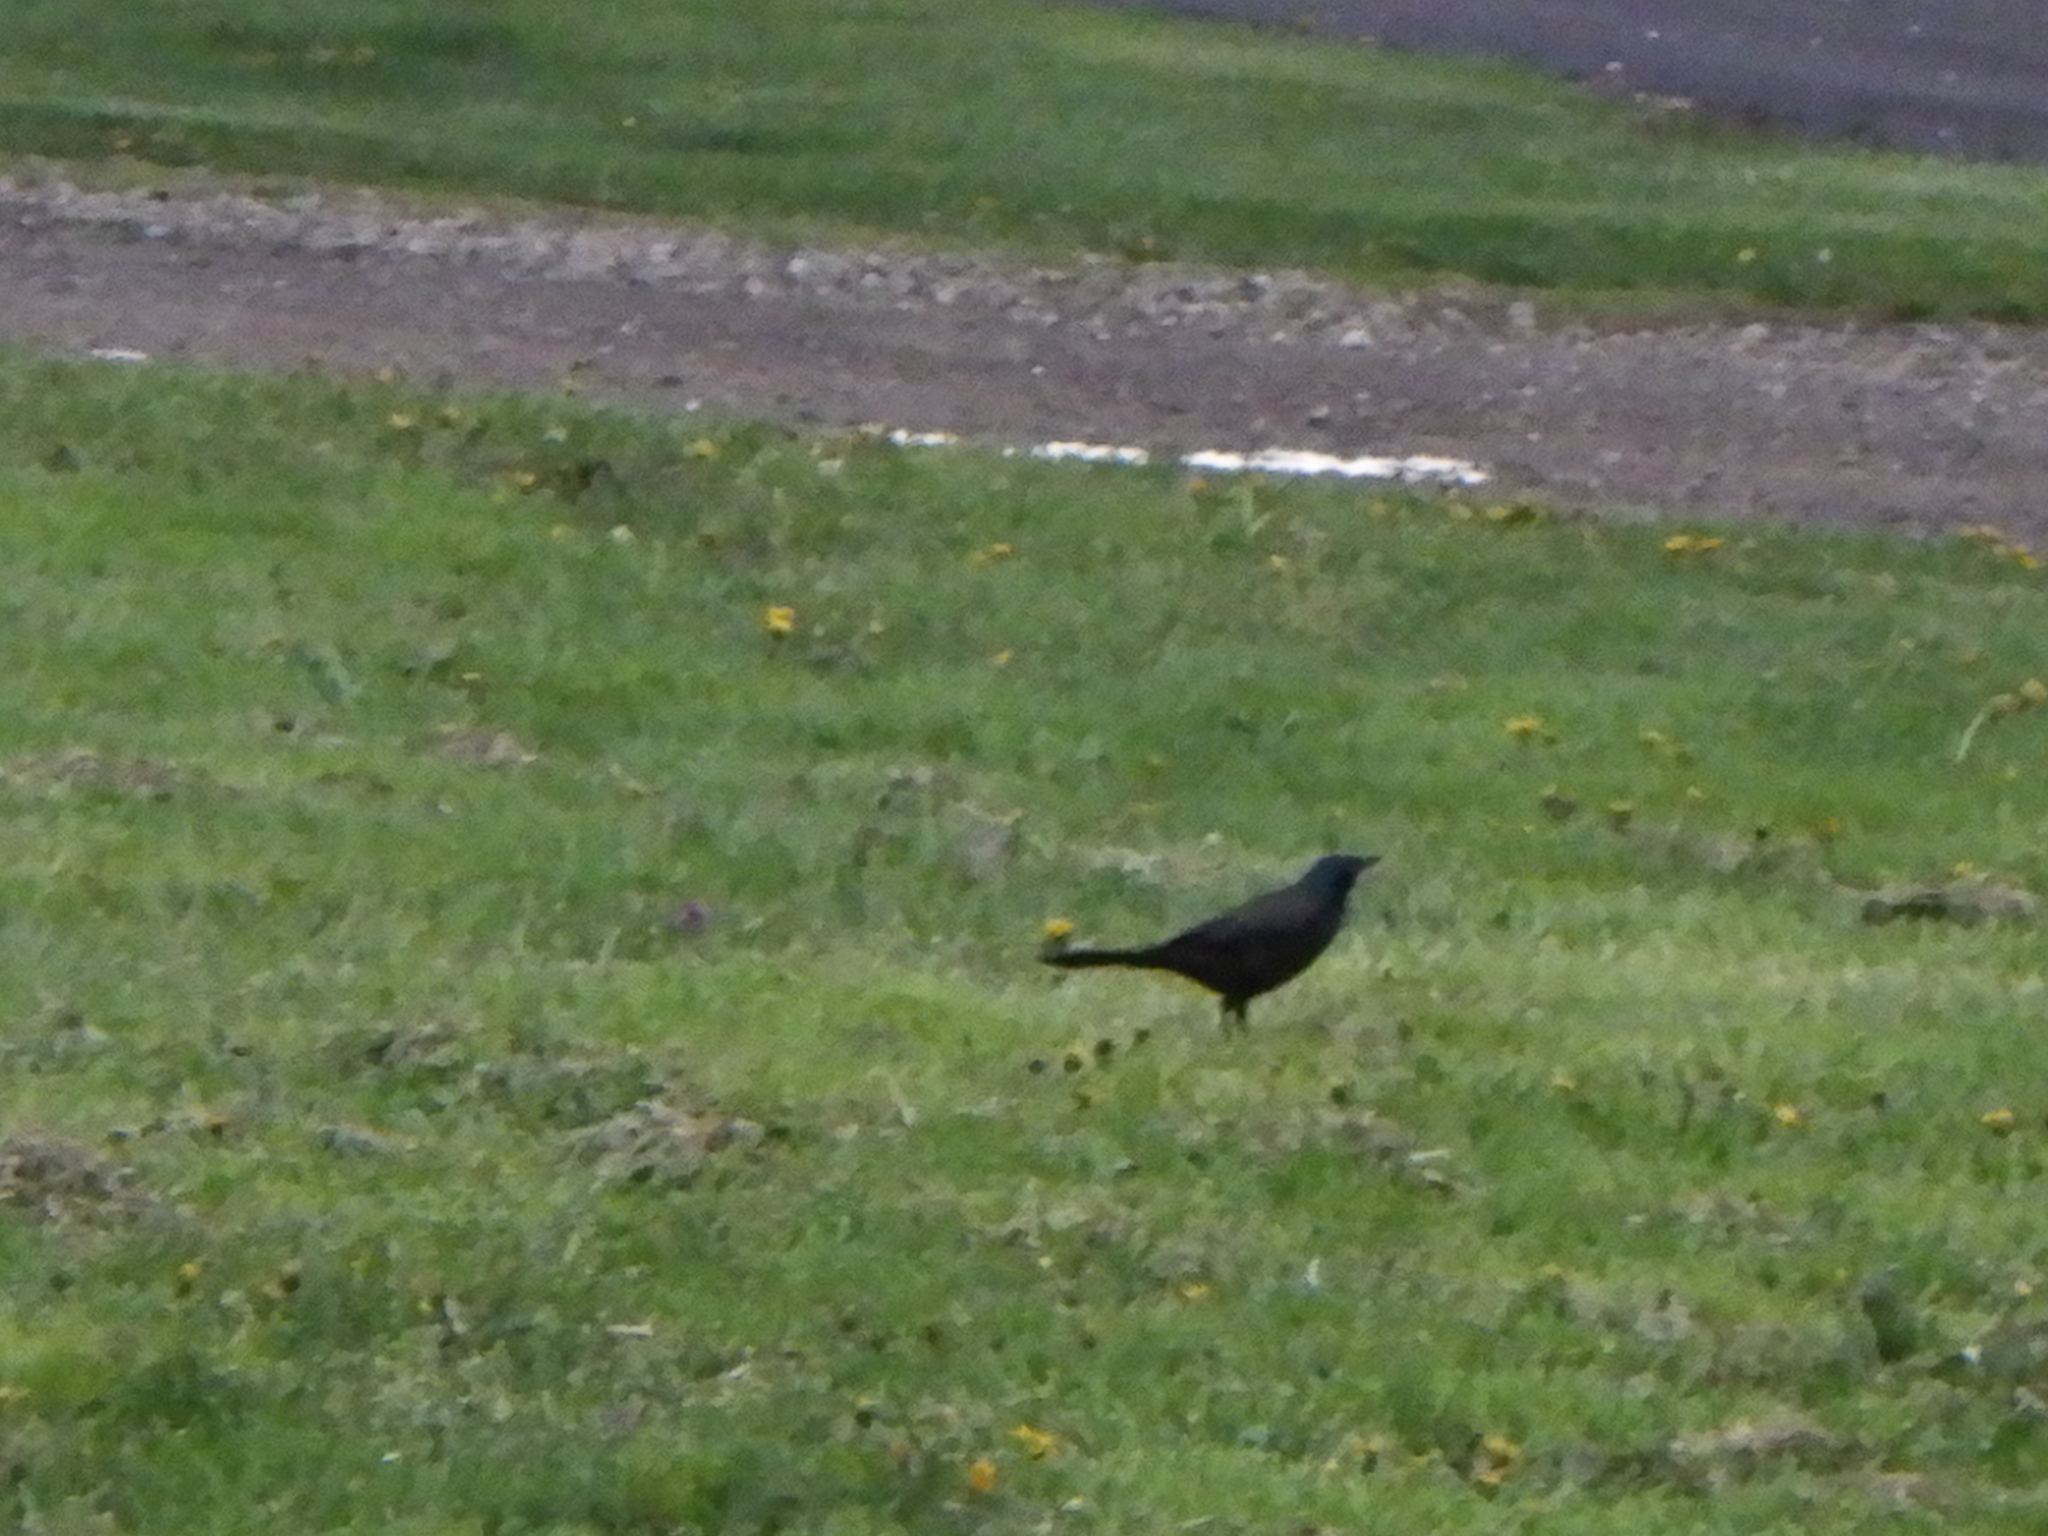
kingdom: Animalia
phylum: Chordata
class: Aves
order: Passeriformes
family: Icteridae
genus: Quiscalus
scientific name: Quiscalus quiscula
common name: Common grackle
